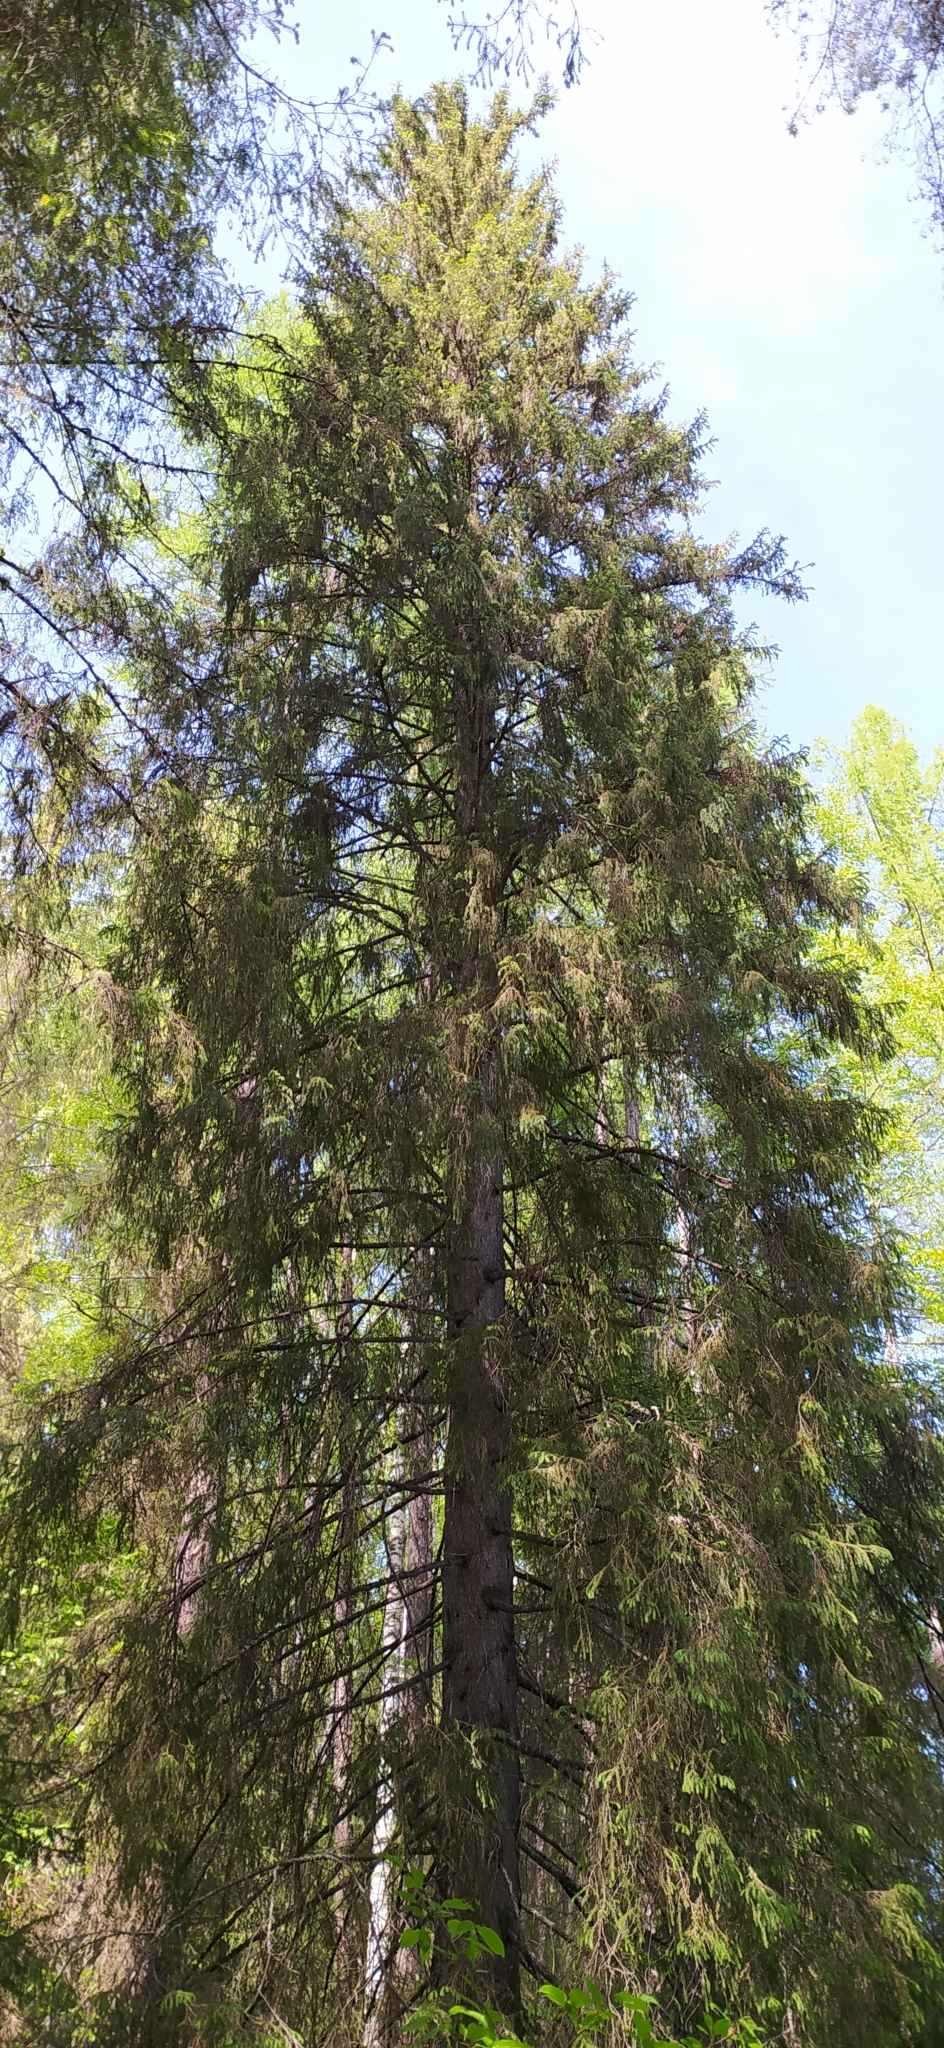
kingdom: Plantae
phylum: Tracheophyta
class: Pinopsida
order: Pinales
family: Pinaceae
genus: Picea
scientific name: Picea obovata
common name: Siberian spruce
